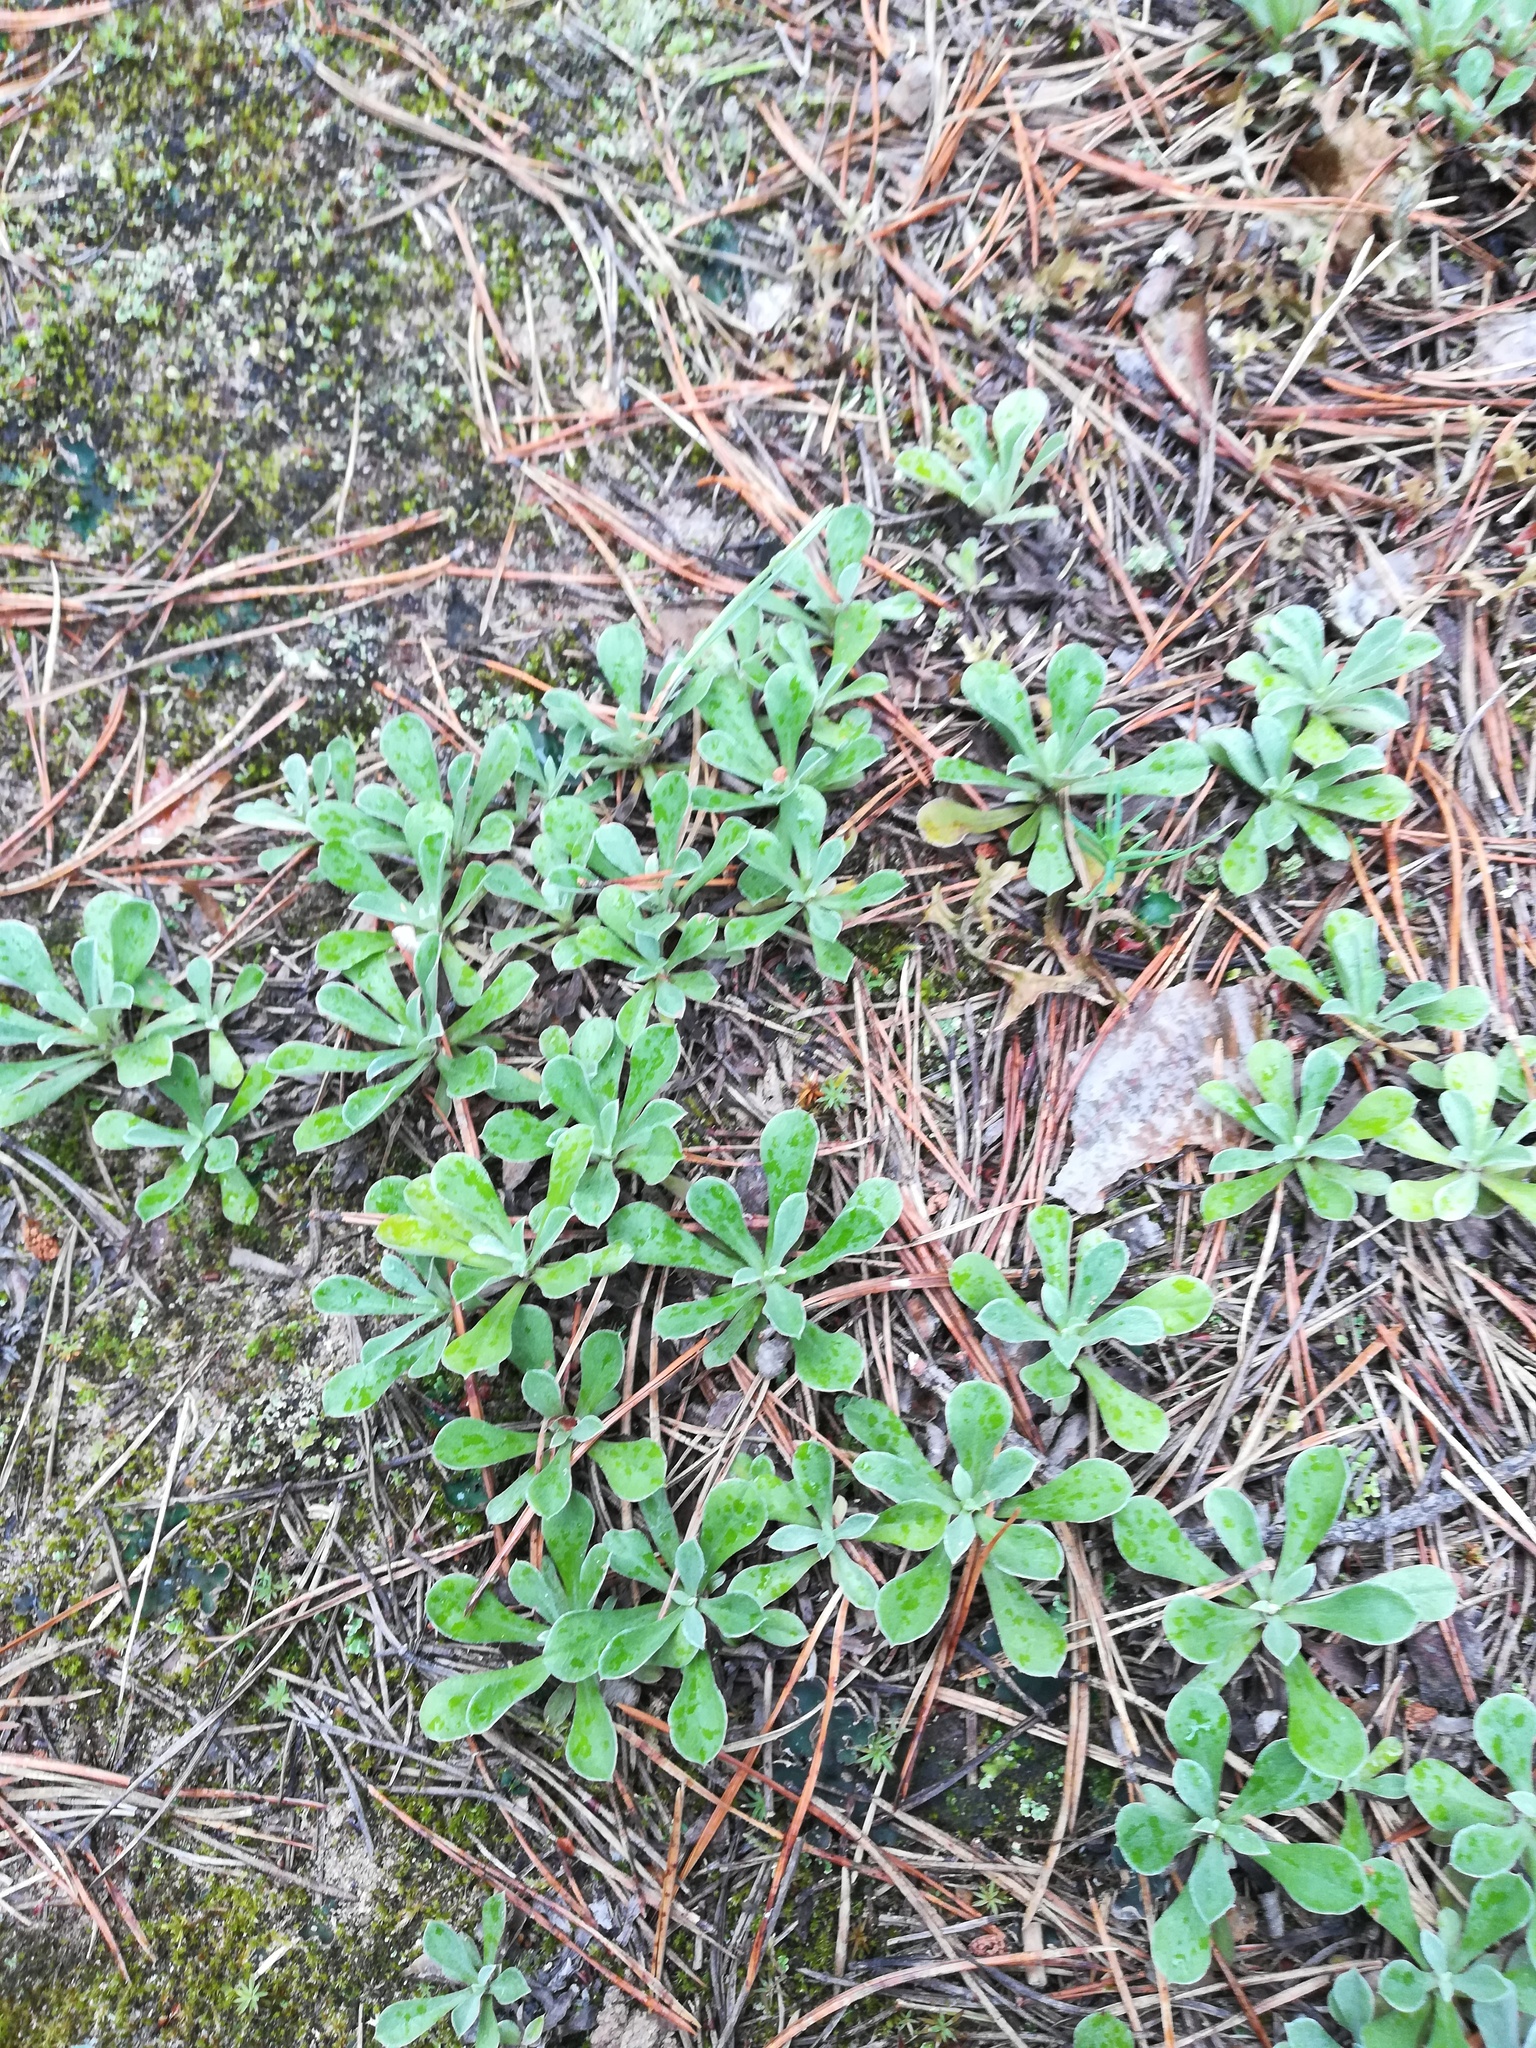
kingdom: Plantae
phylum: Tracheophyta
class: Magnoliopsida
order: Asterales
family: Asteraceae
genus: Antennaria
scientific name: Antennaria dioica
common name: Mountain everlasting
